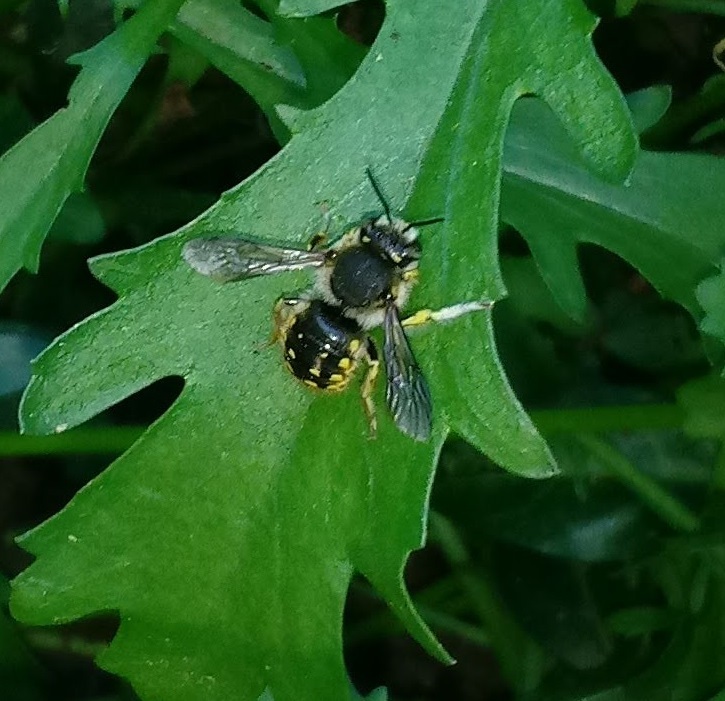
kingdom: Animalia
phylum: Arthropoda
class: Insecta
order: Hymenoptera
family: Megachilidae
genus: Anthidium
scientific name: Anthidium manicatum
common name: Wool carder bee
